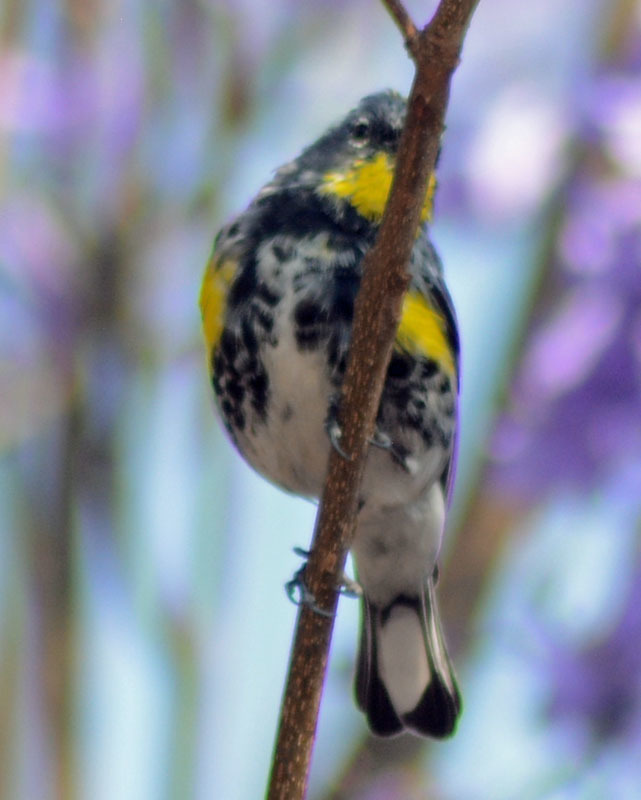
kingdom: Animalia
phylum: Chordata
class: Aves
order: Passeriformes
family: Parulidae
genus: Setophaga
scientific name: Setophaga auduboni
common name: Audubon's warbler
